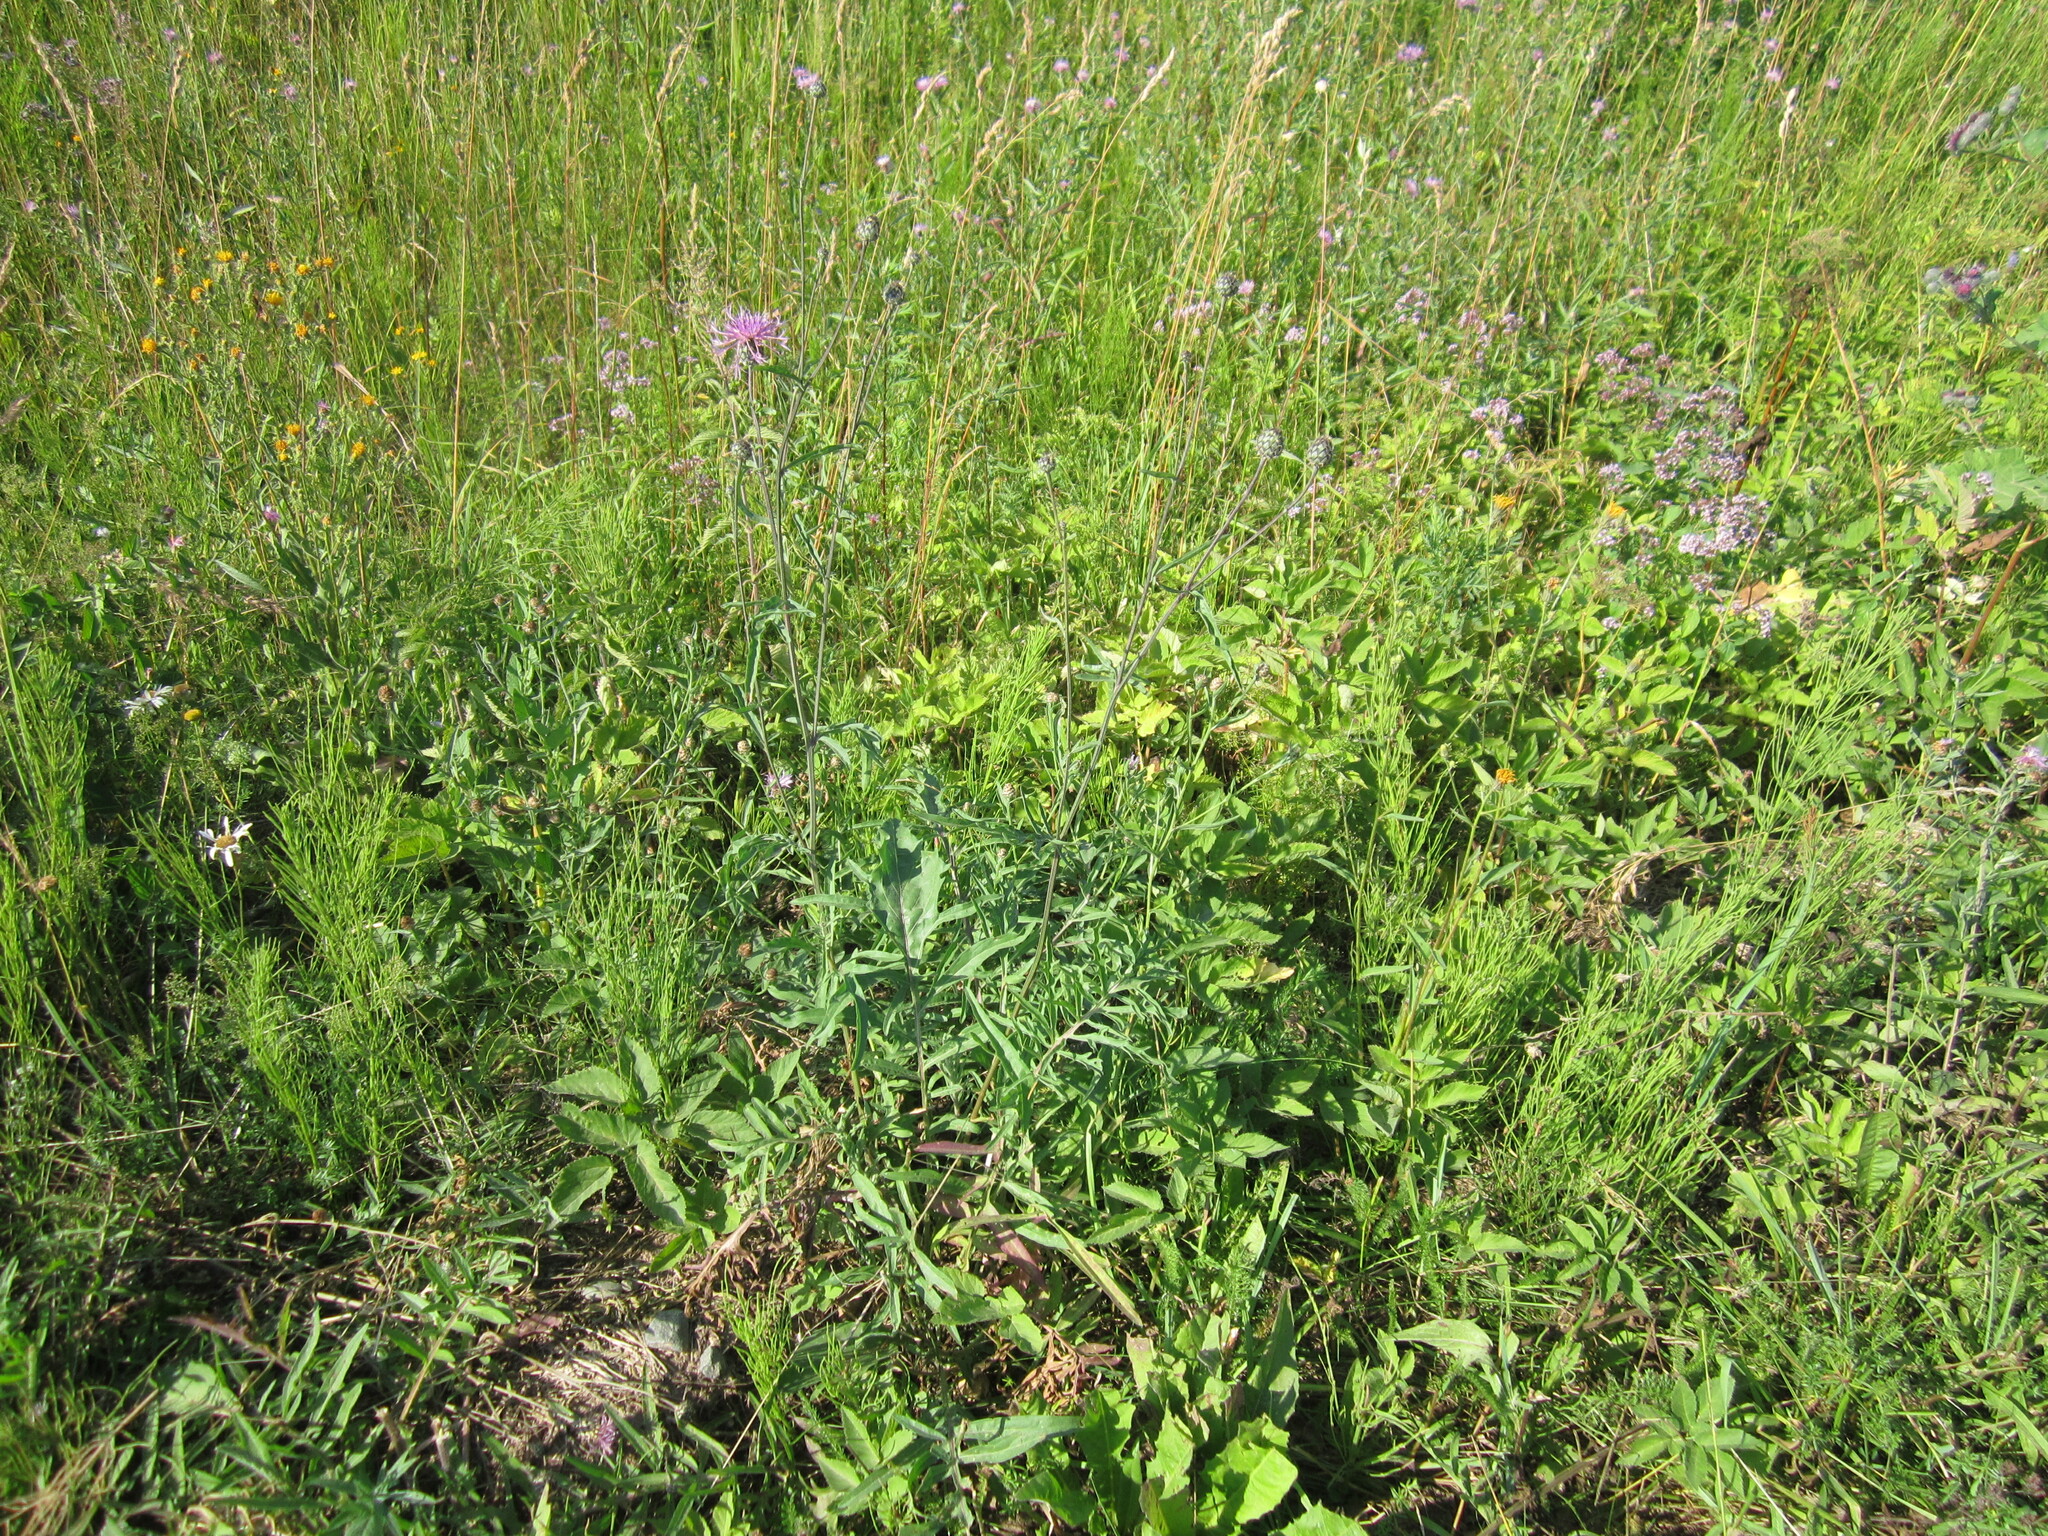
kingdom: Plantae
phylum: Tracheophyta
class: Magnoliopsida
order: Asterales
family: Asteraceae
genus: Centaurea
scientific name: Centaurea scabiosa
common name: Greater knapweed
